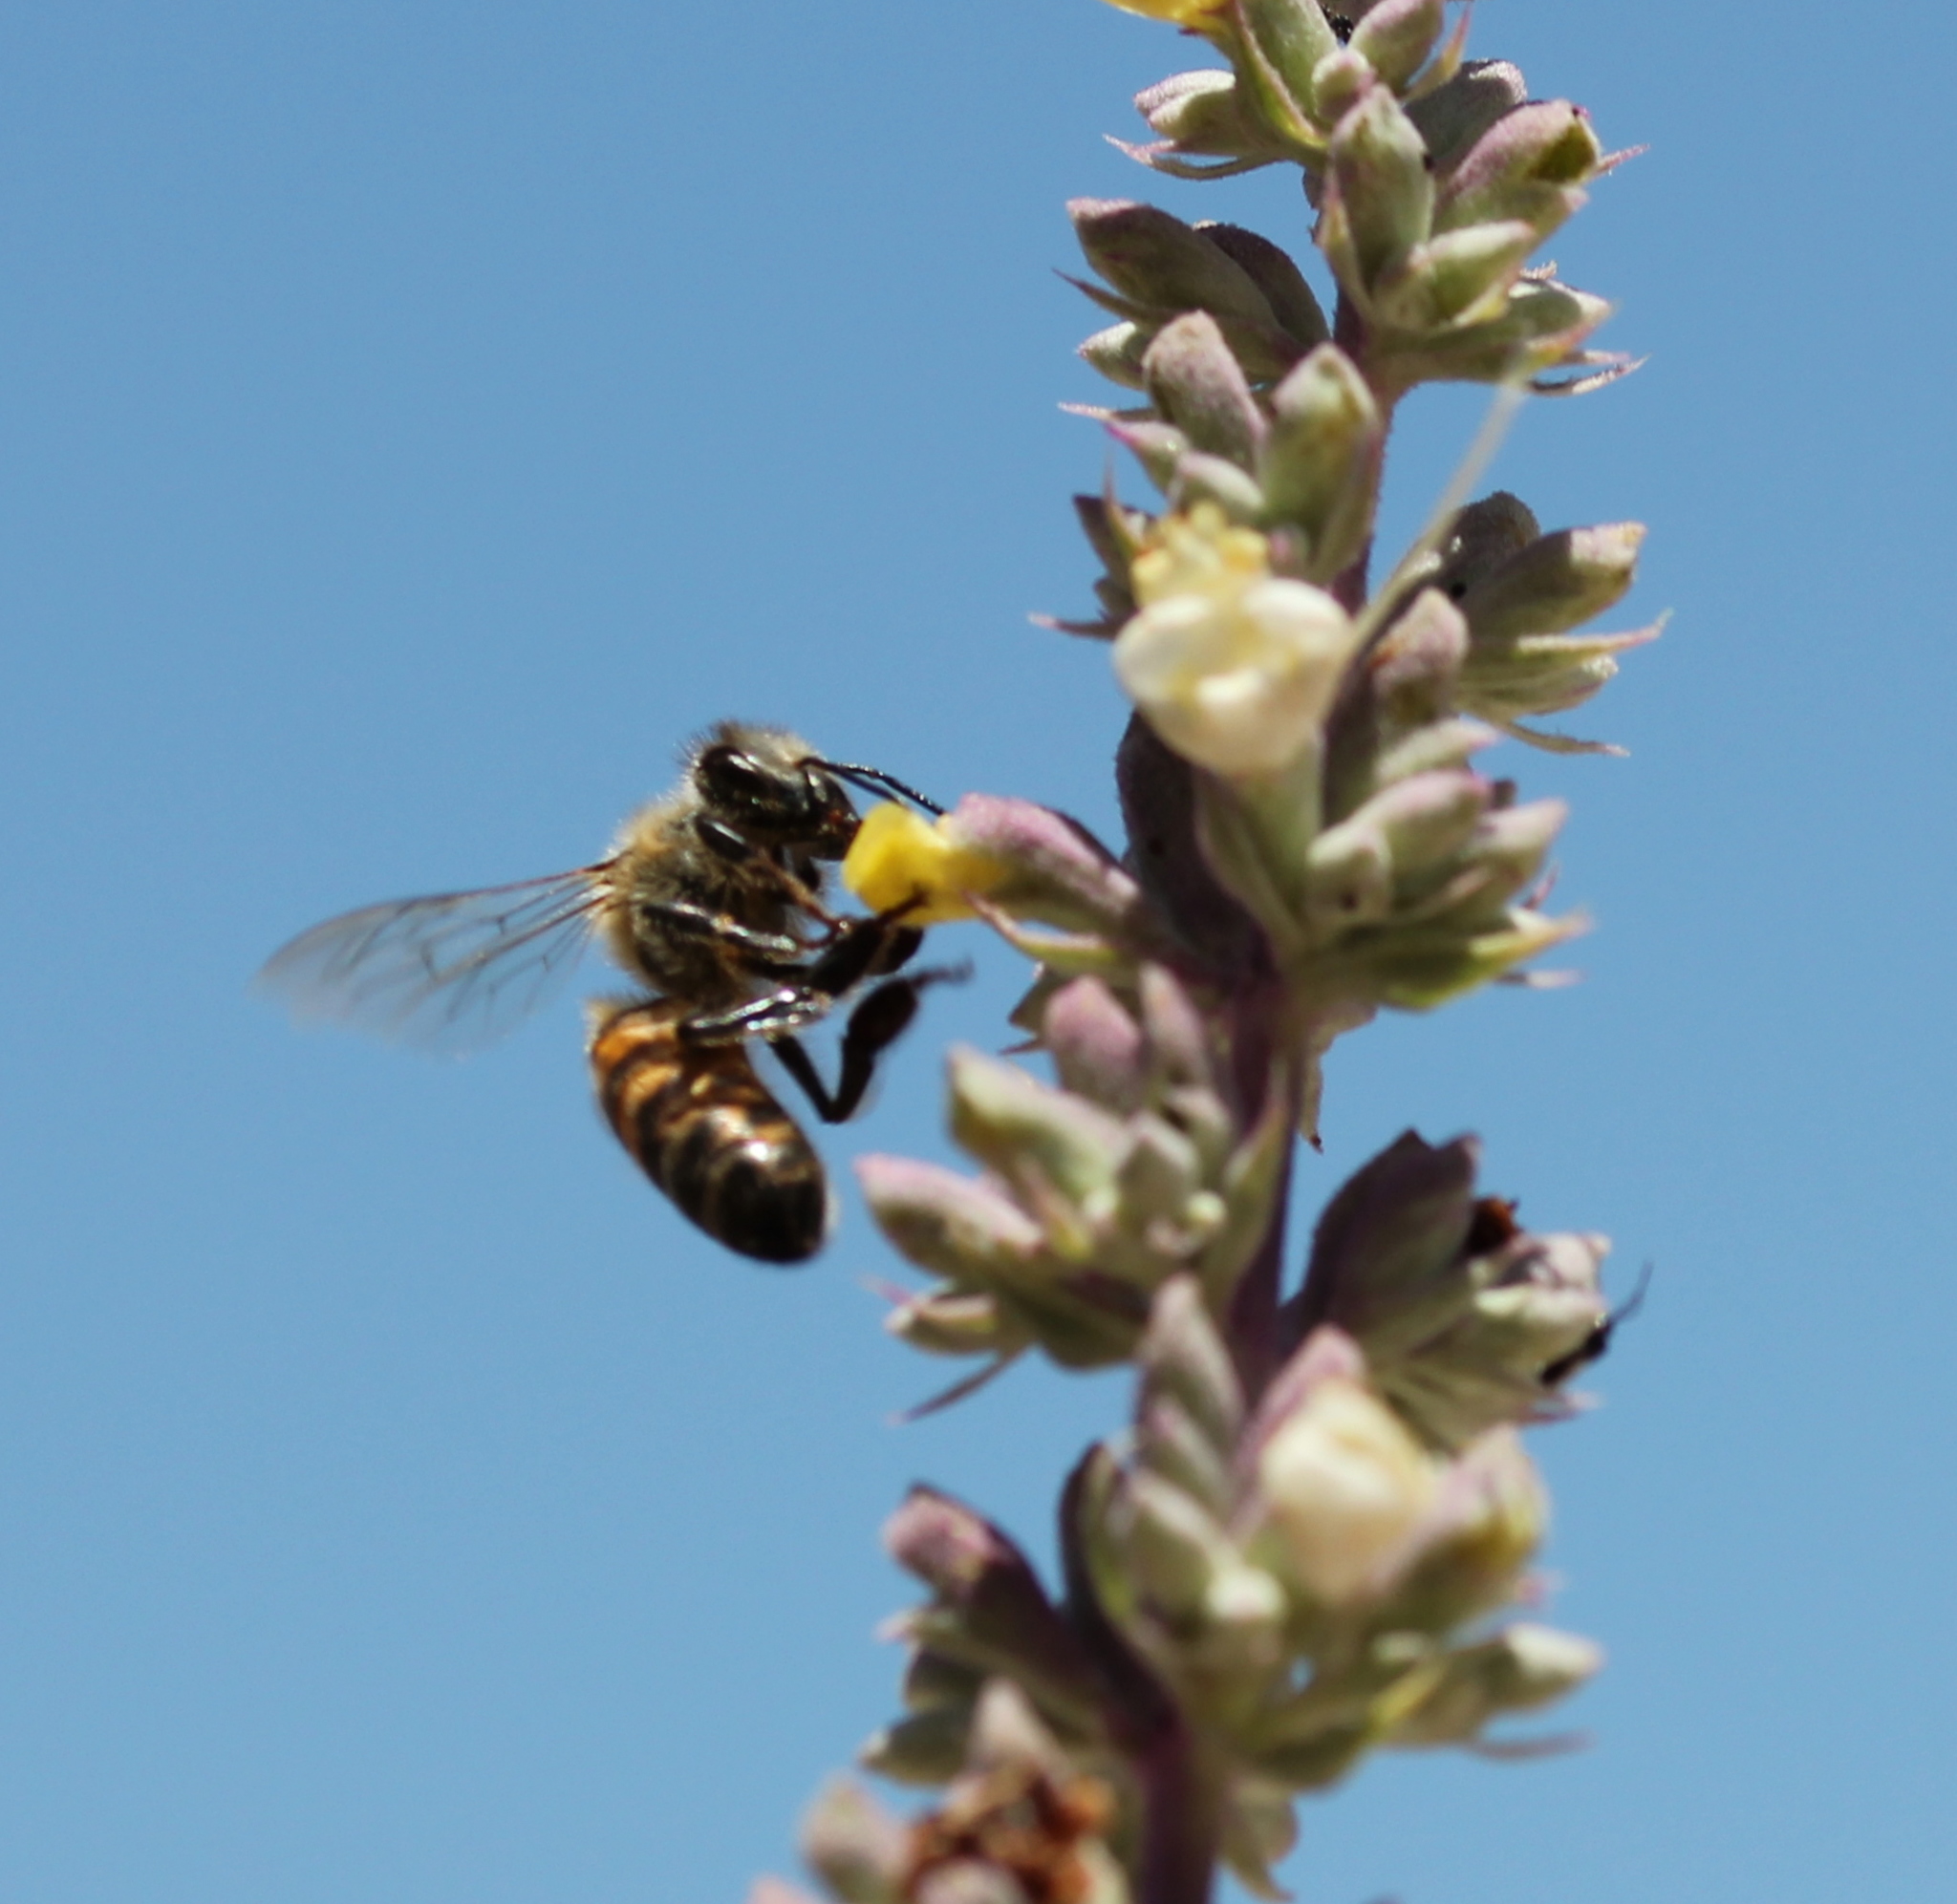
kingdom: Animalia
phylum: Arthropoda
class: Insecta
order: Hymenoptera
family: Apidae
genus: Apis
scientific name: Apis mellifera
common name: Honey bee
